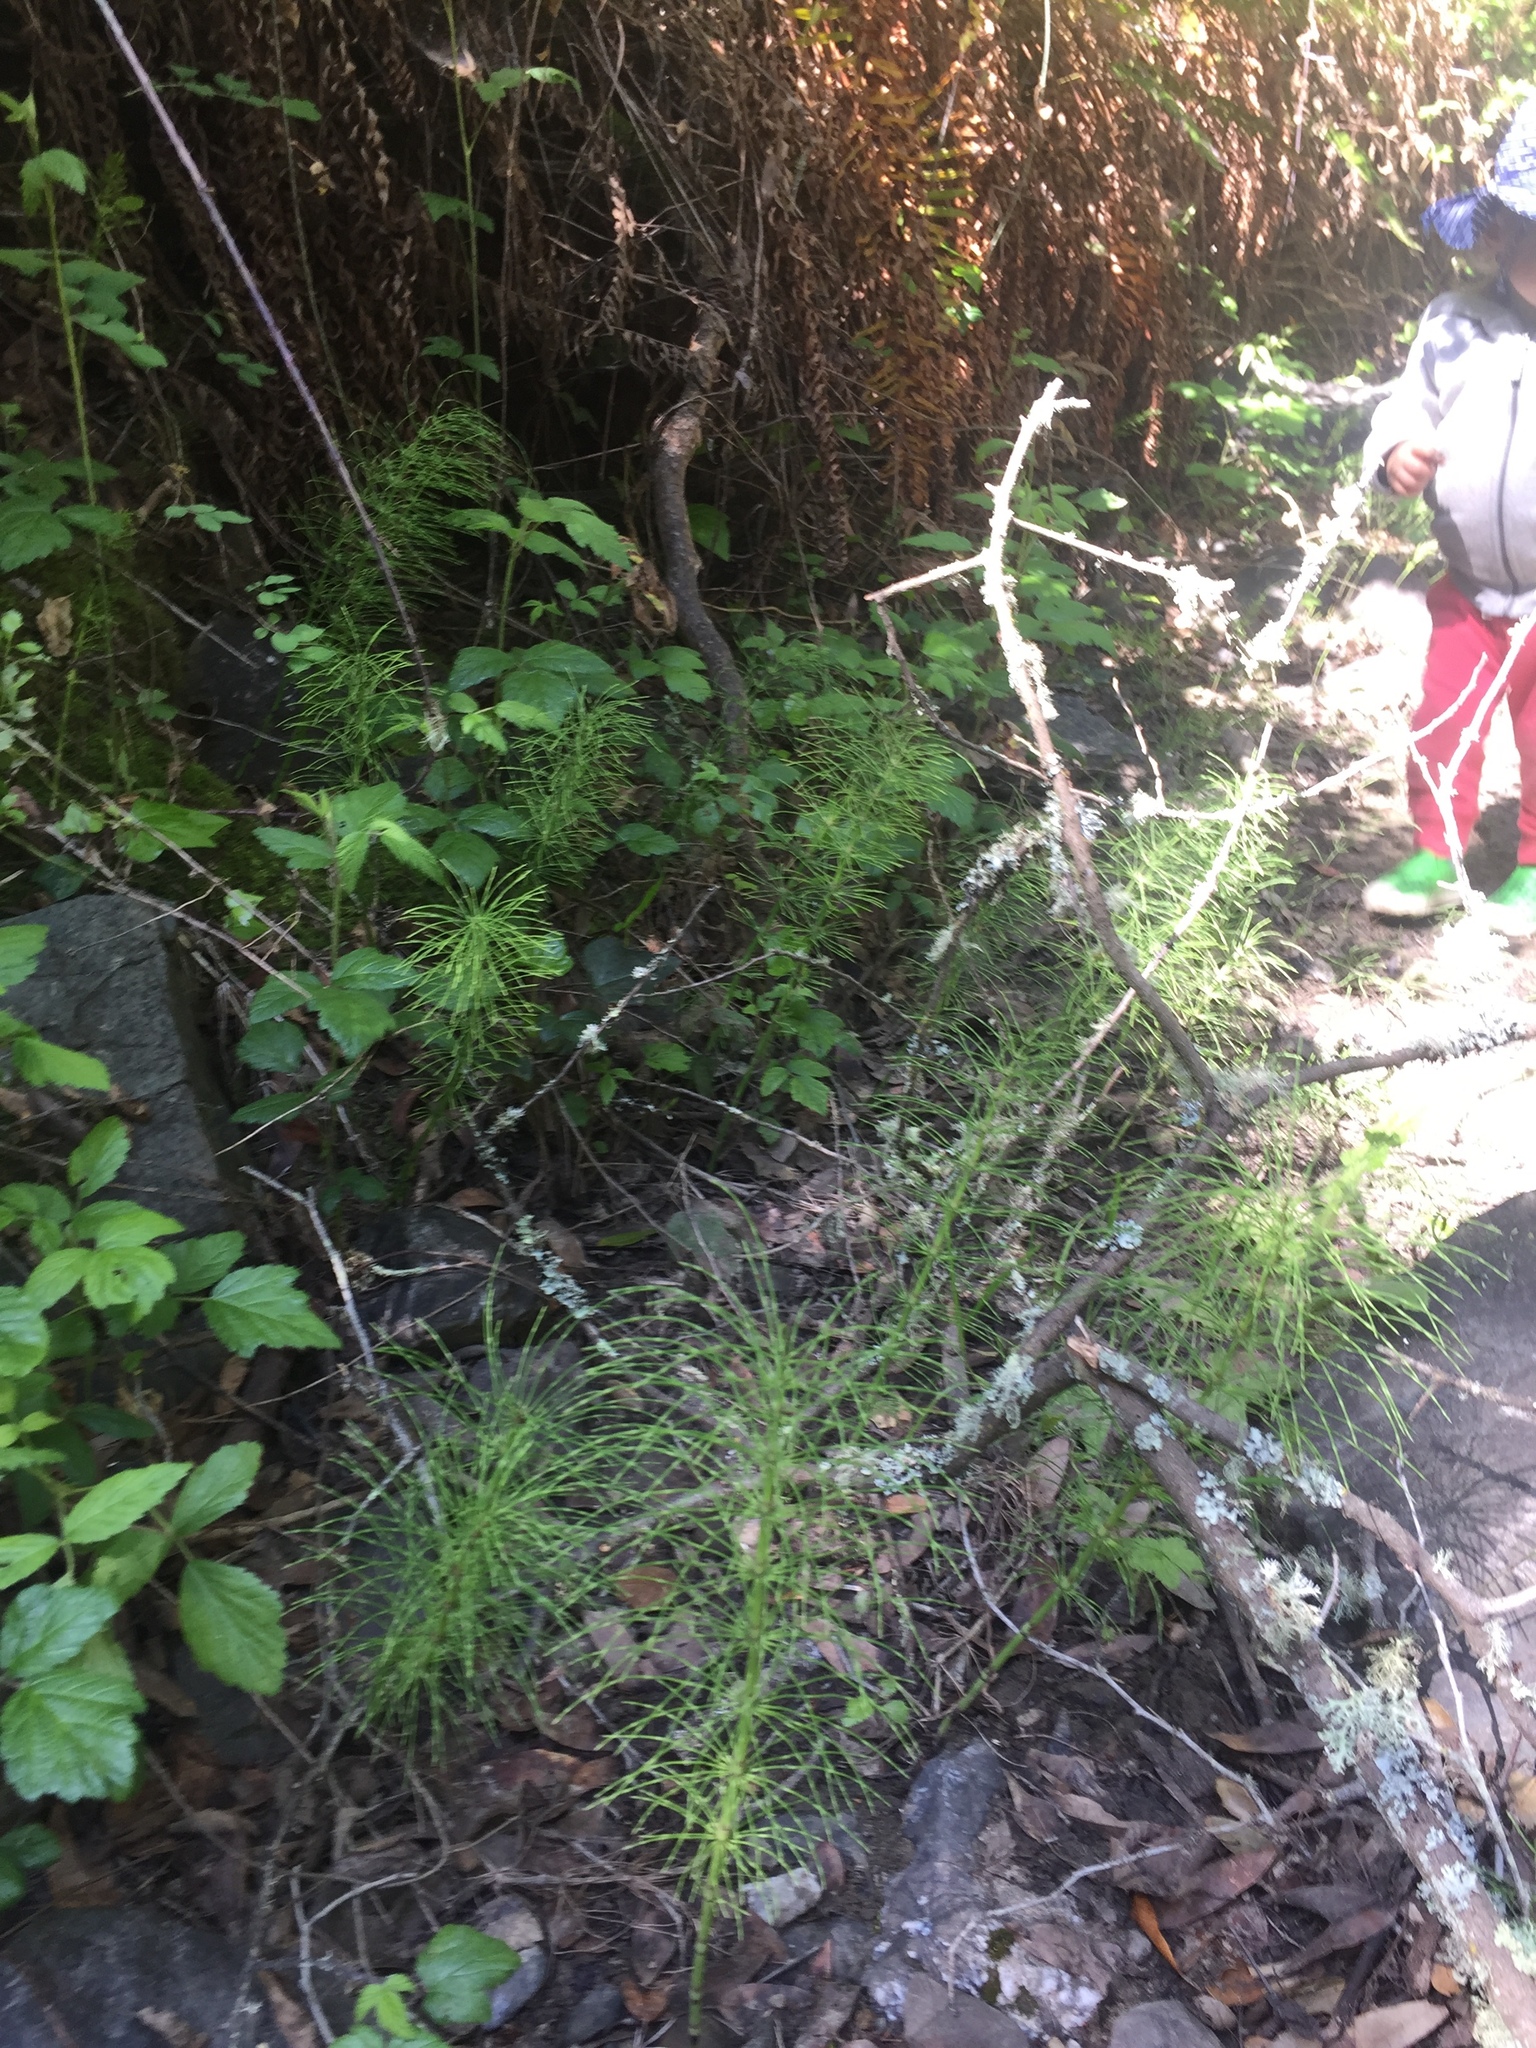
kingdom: Plantae
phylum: Tracheophyta
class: Polypodiopsida
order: Equisetales
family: Equisetaceae
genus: Equisetum
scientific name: Equisetum braunii
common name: Braun's horsetail
